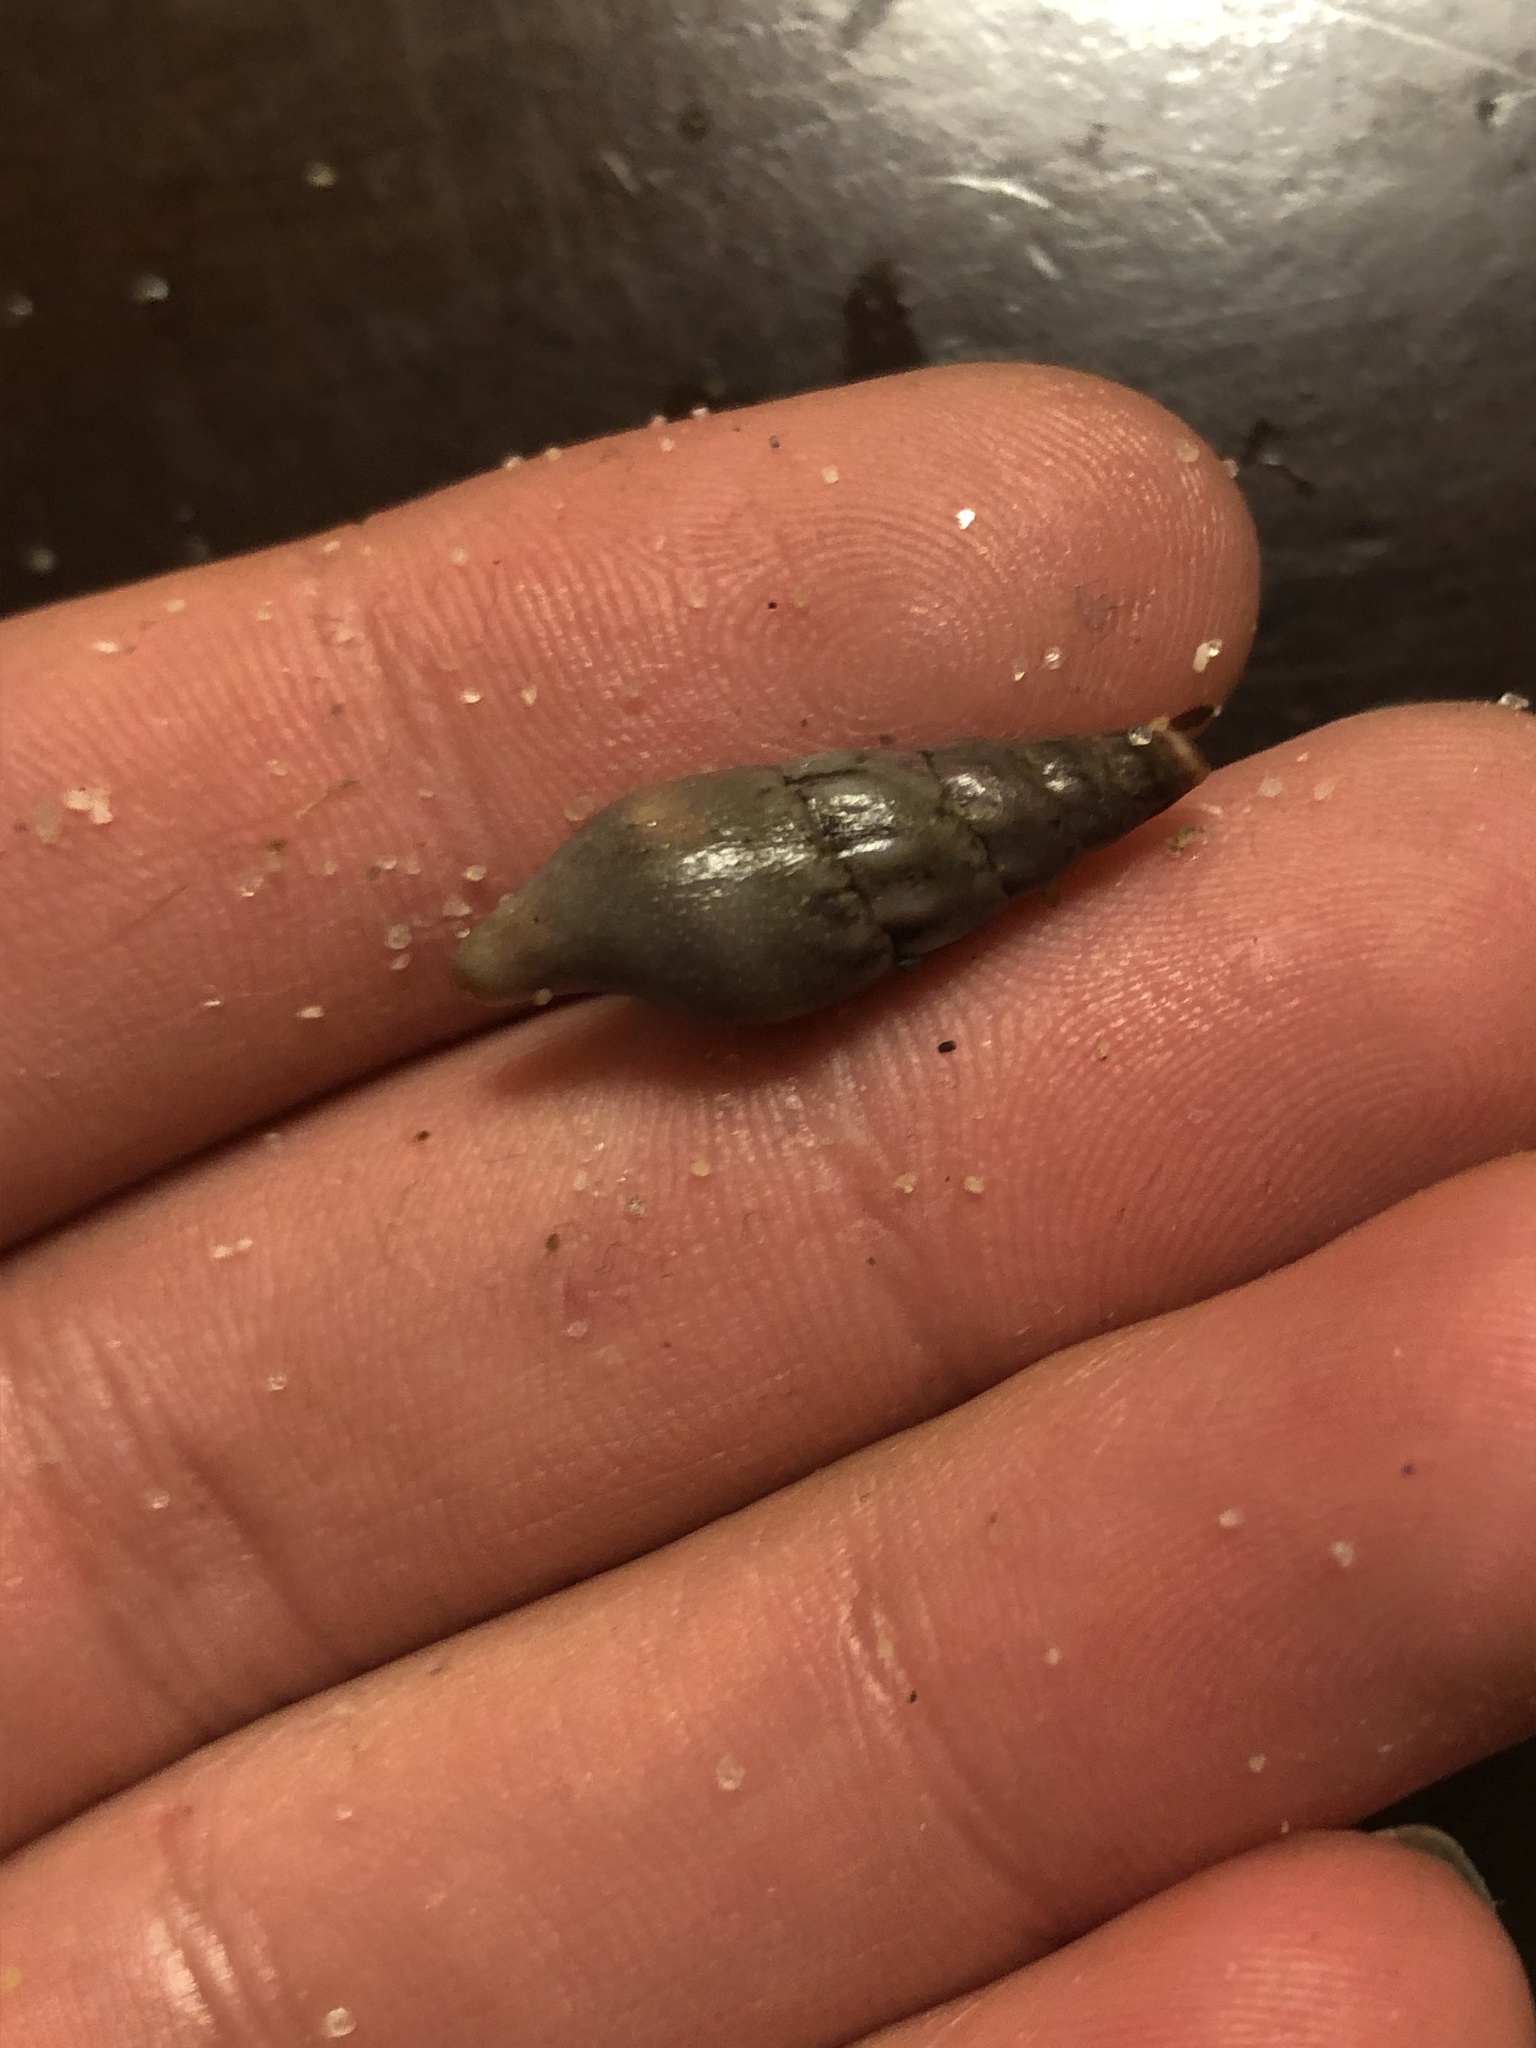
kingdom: Animalia
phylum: Mollusca
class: Gastropoda
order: Neogastropoda
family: Pseudomelatomidae
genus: Pseudomelatoma
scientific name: Pseudomelatoma penicillata
